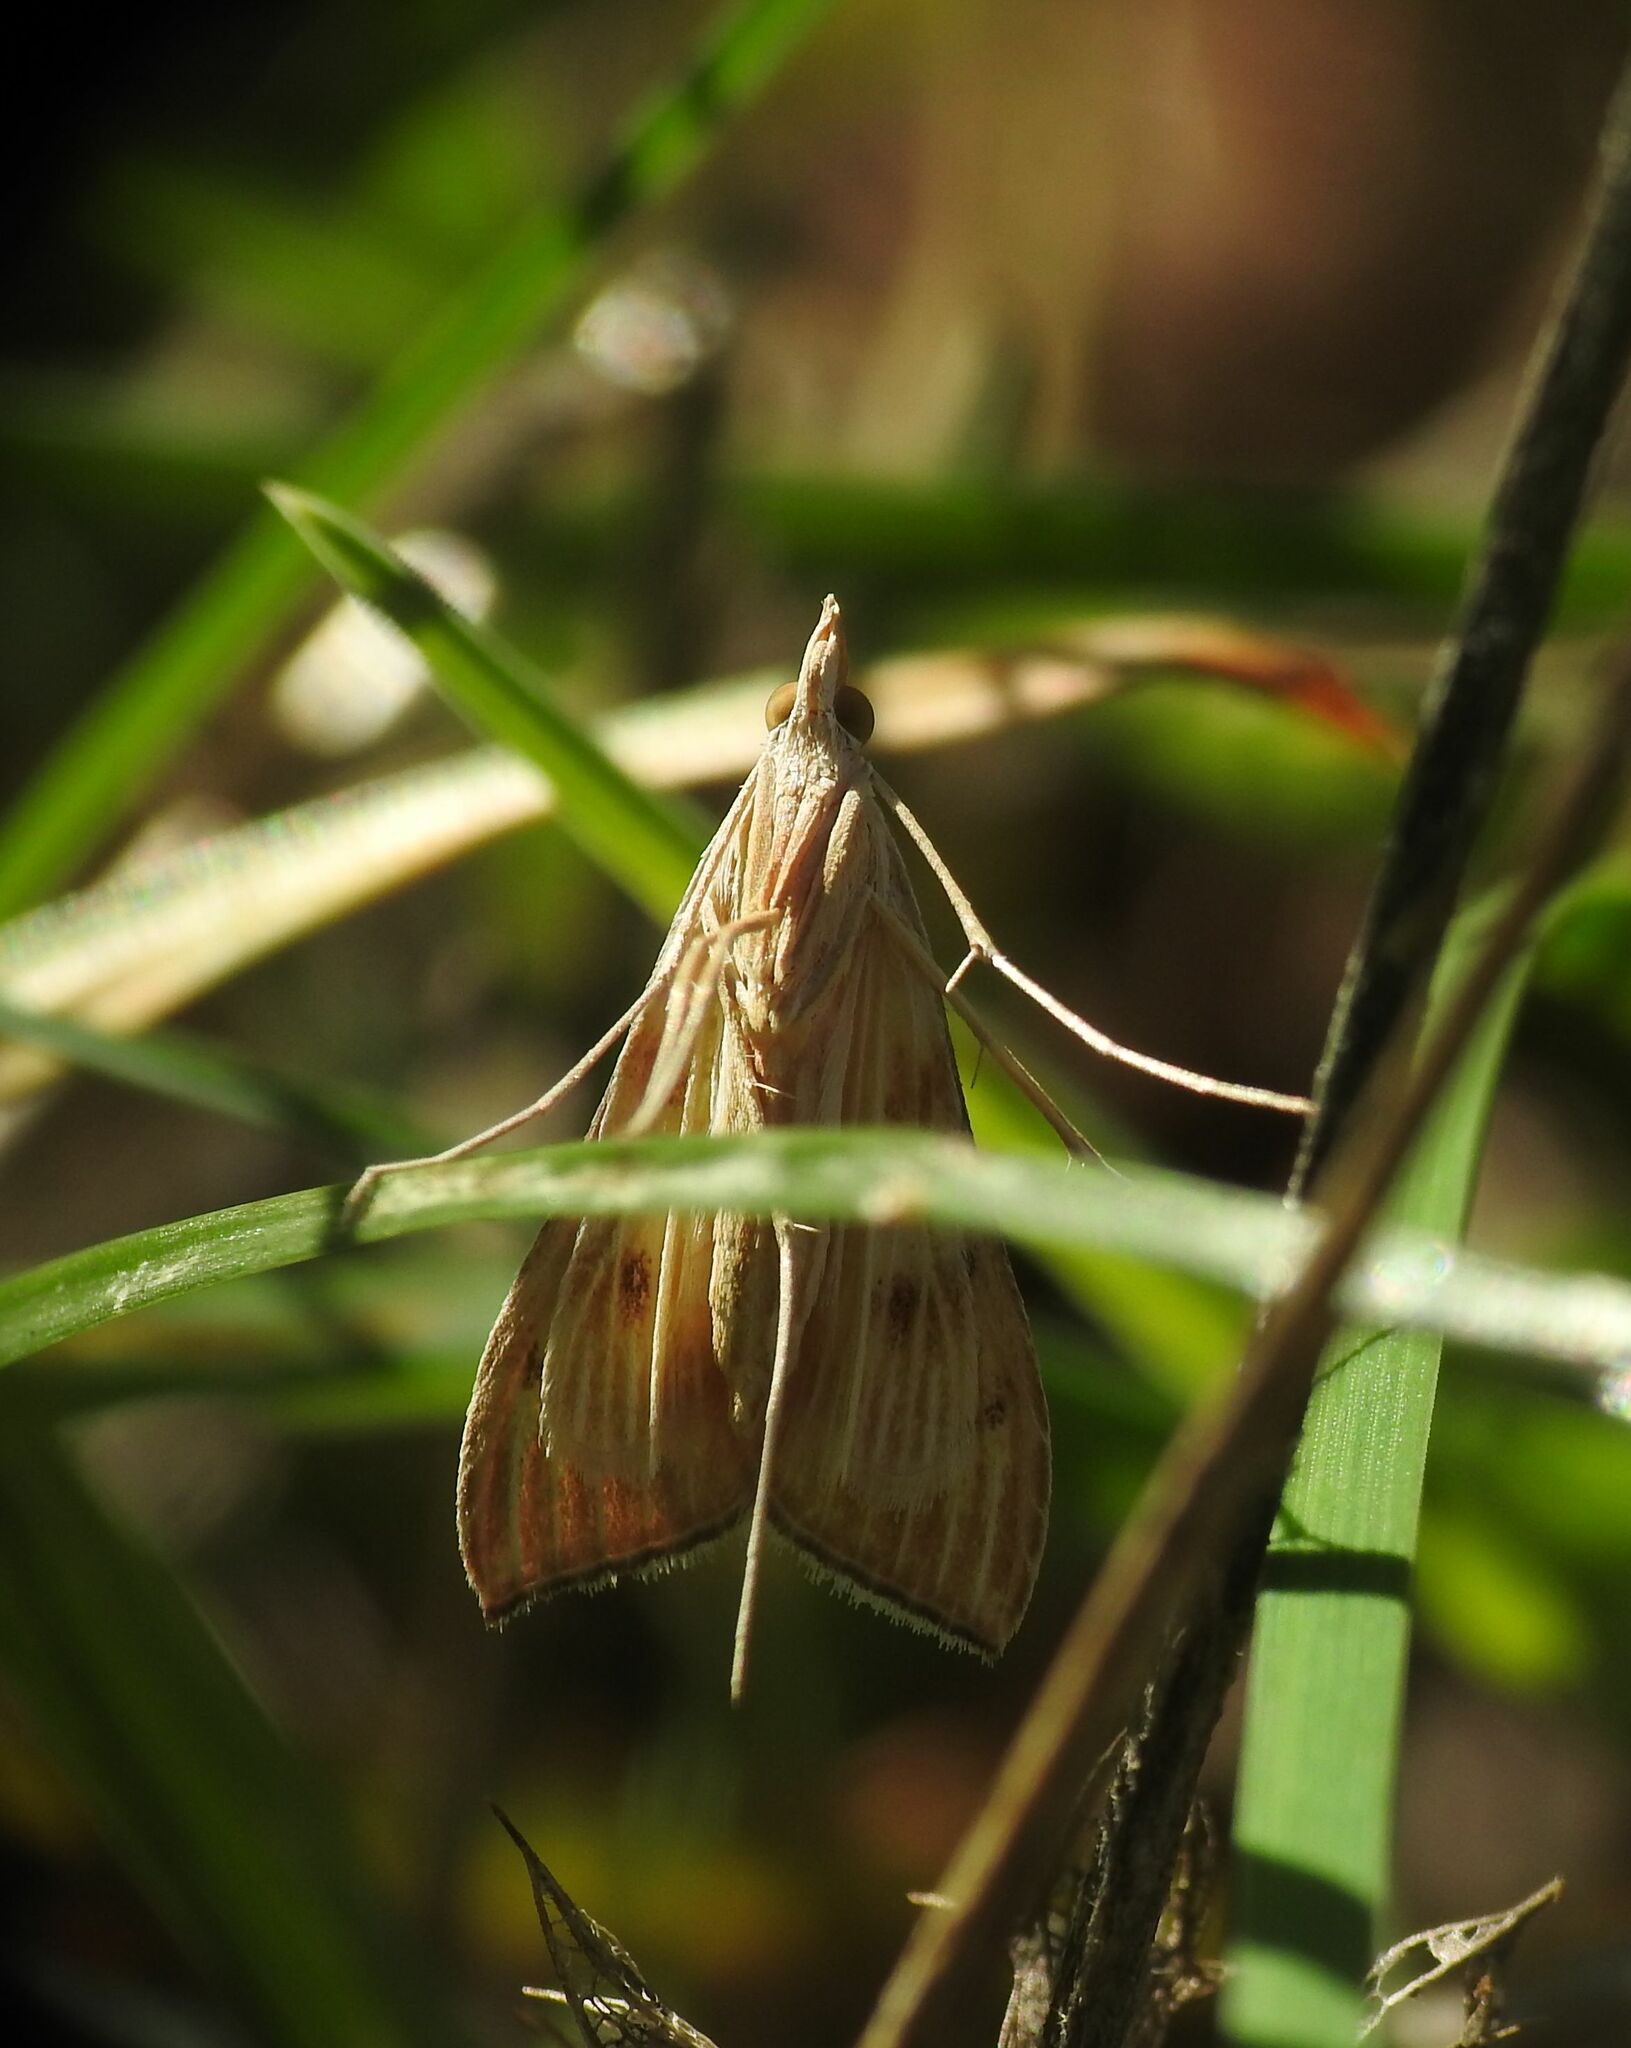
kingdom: Animalia
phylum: Arthropoda
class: Insecta
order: Lepidoptera
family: Crambidae
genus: Antigastra
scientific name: Antigastra catalaunalis
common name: Spanish dot
